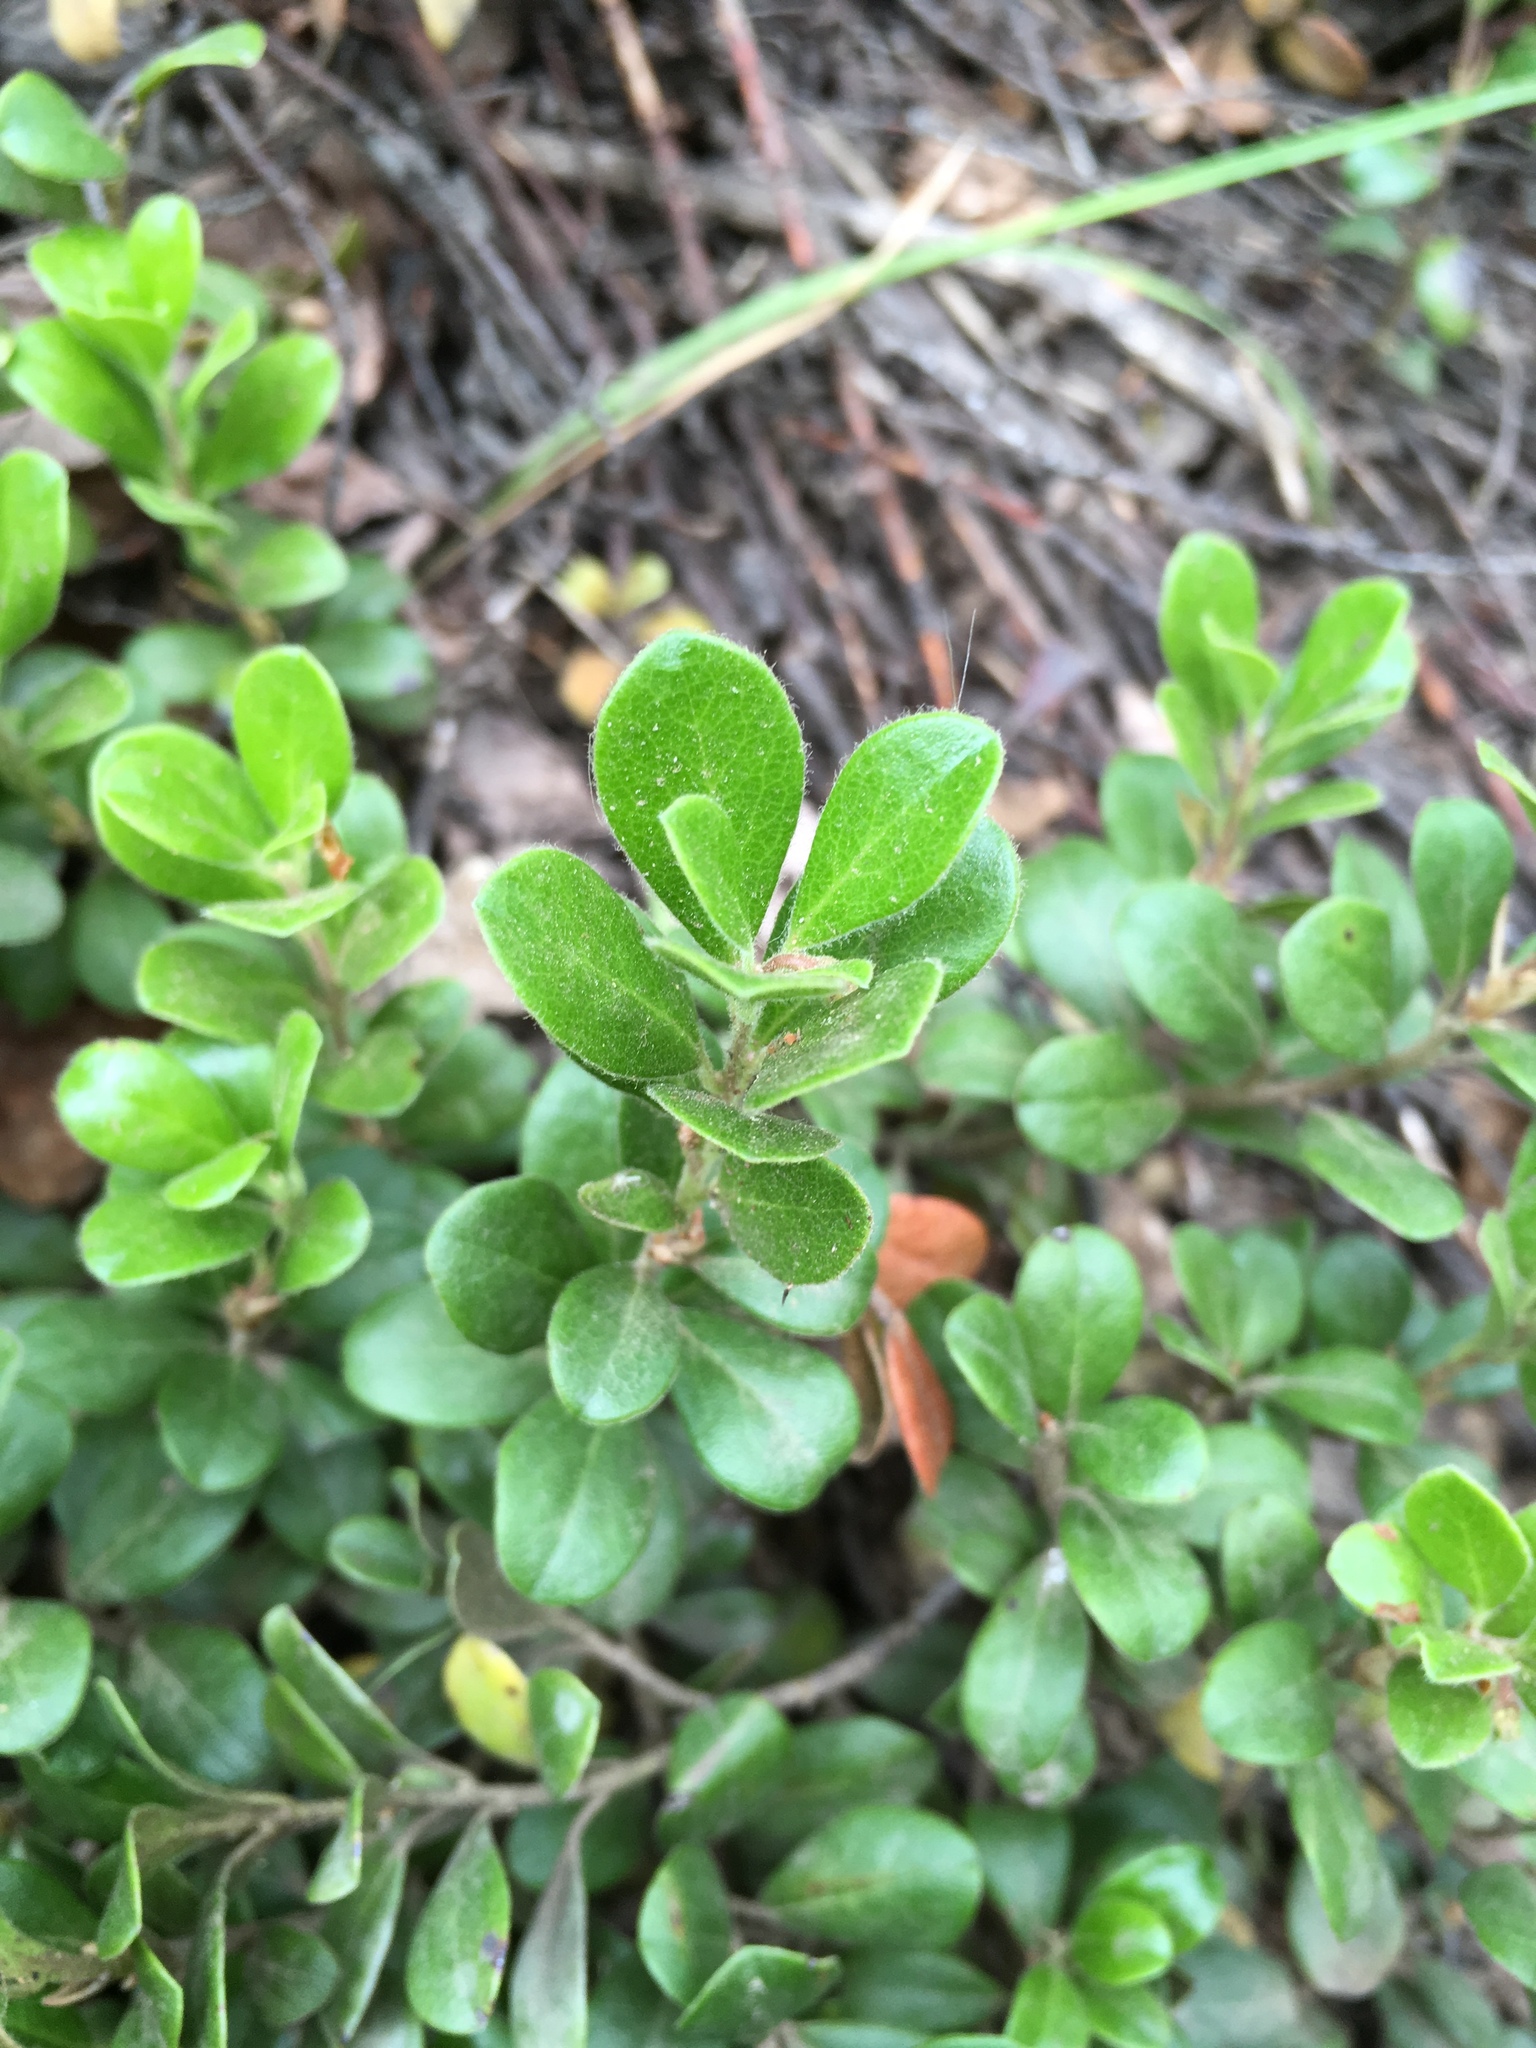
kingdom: Plantae
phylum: Tracheophyta
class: Magnoliopsida
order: Ericales
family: Ericaceae
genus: Arctostaphylos
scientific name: Arctostaphylos uva-ursi
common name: Bearberry
